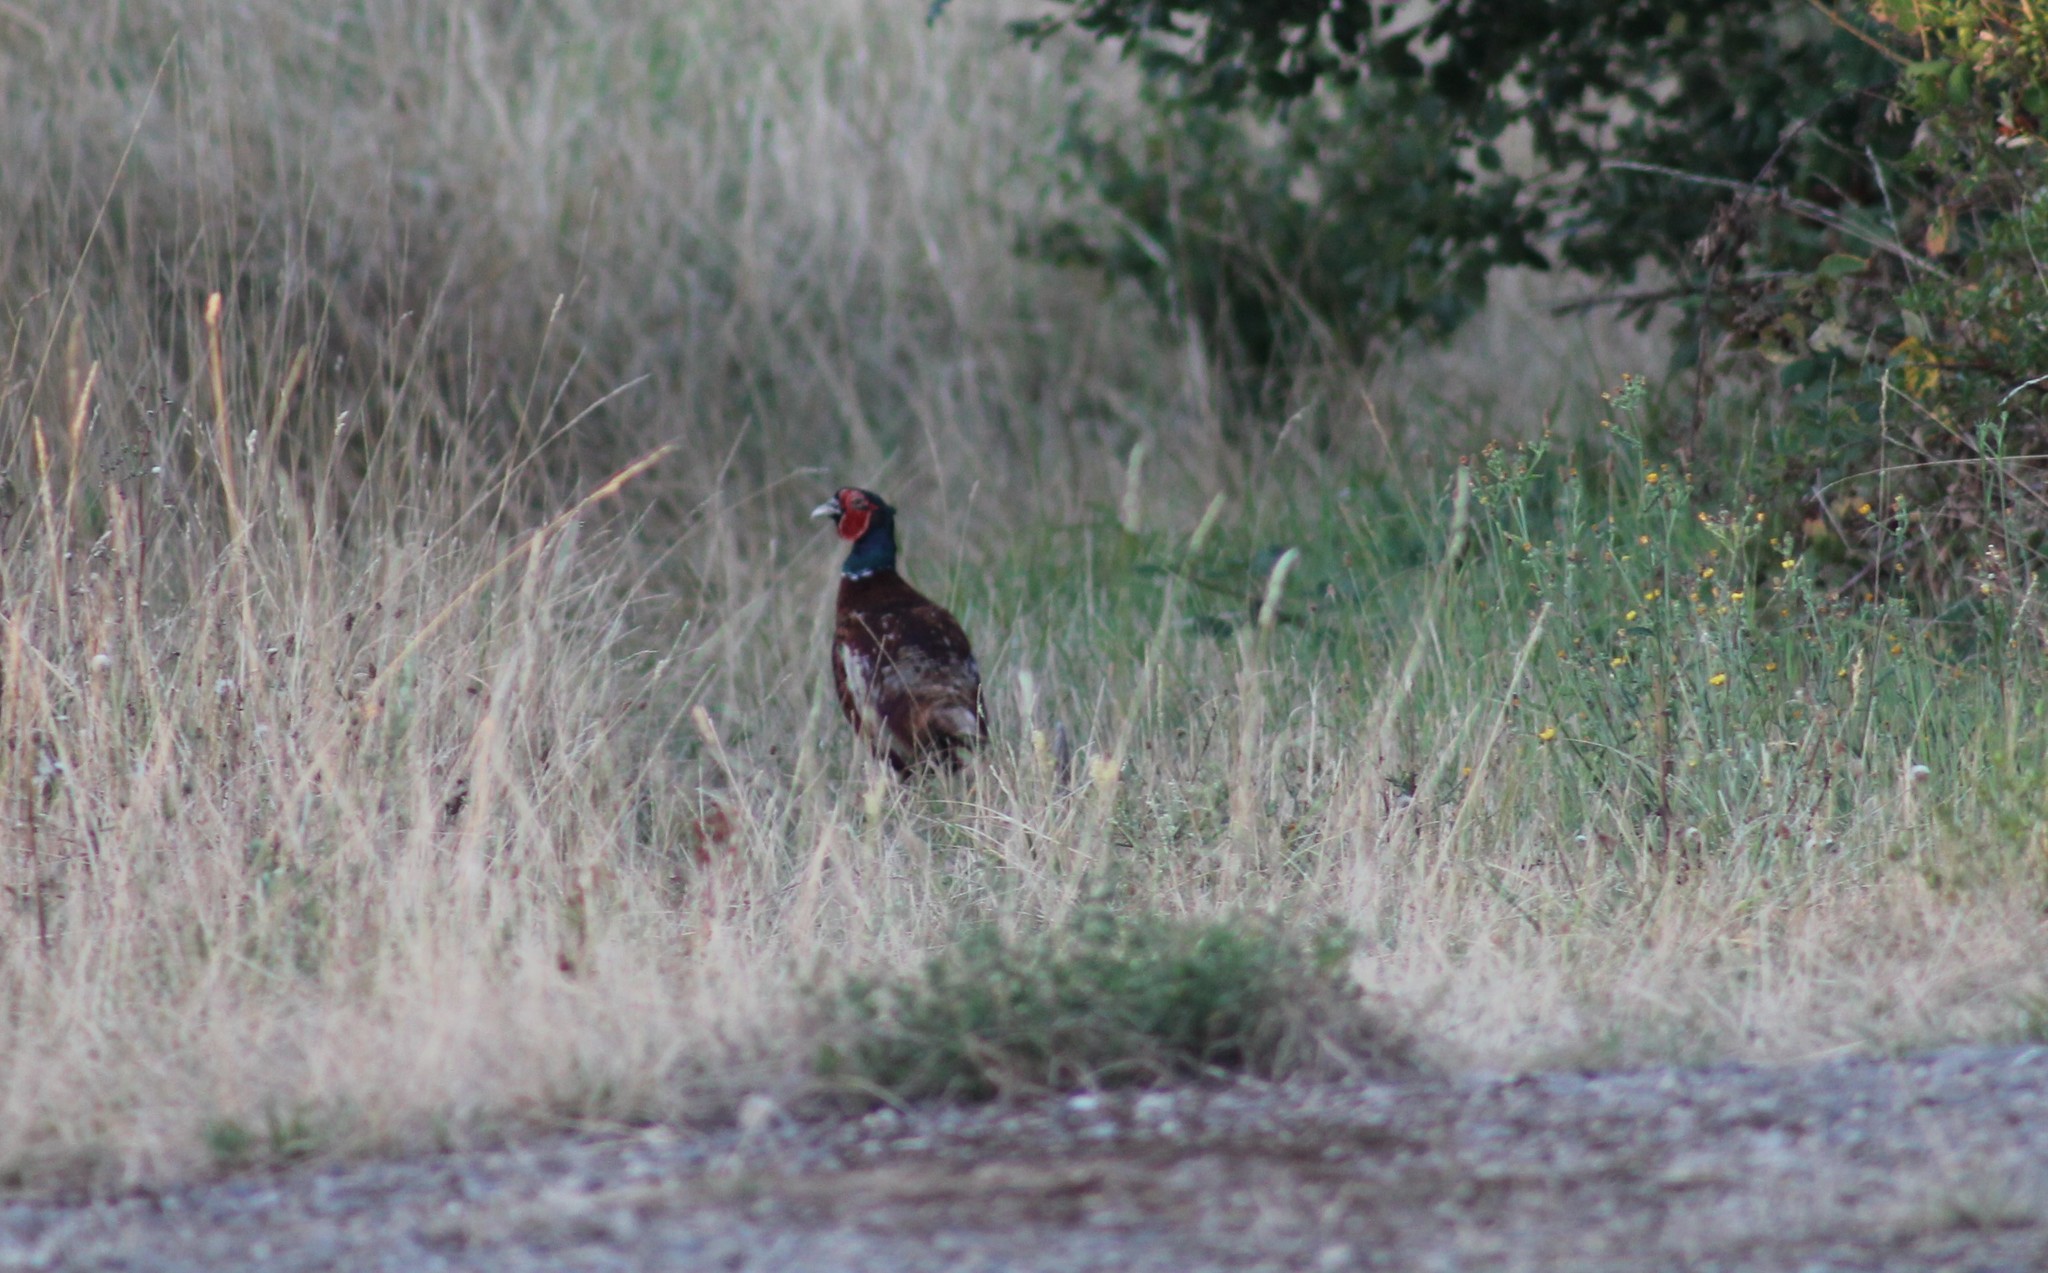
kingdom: Animalia
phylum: Chordata
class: Aves
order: Galliformes
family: Phasianidae
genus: Phasianus
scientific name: Phasianus colchicus
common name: Common pheasant
